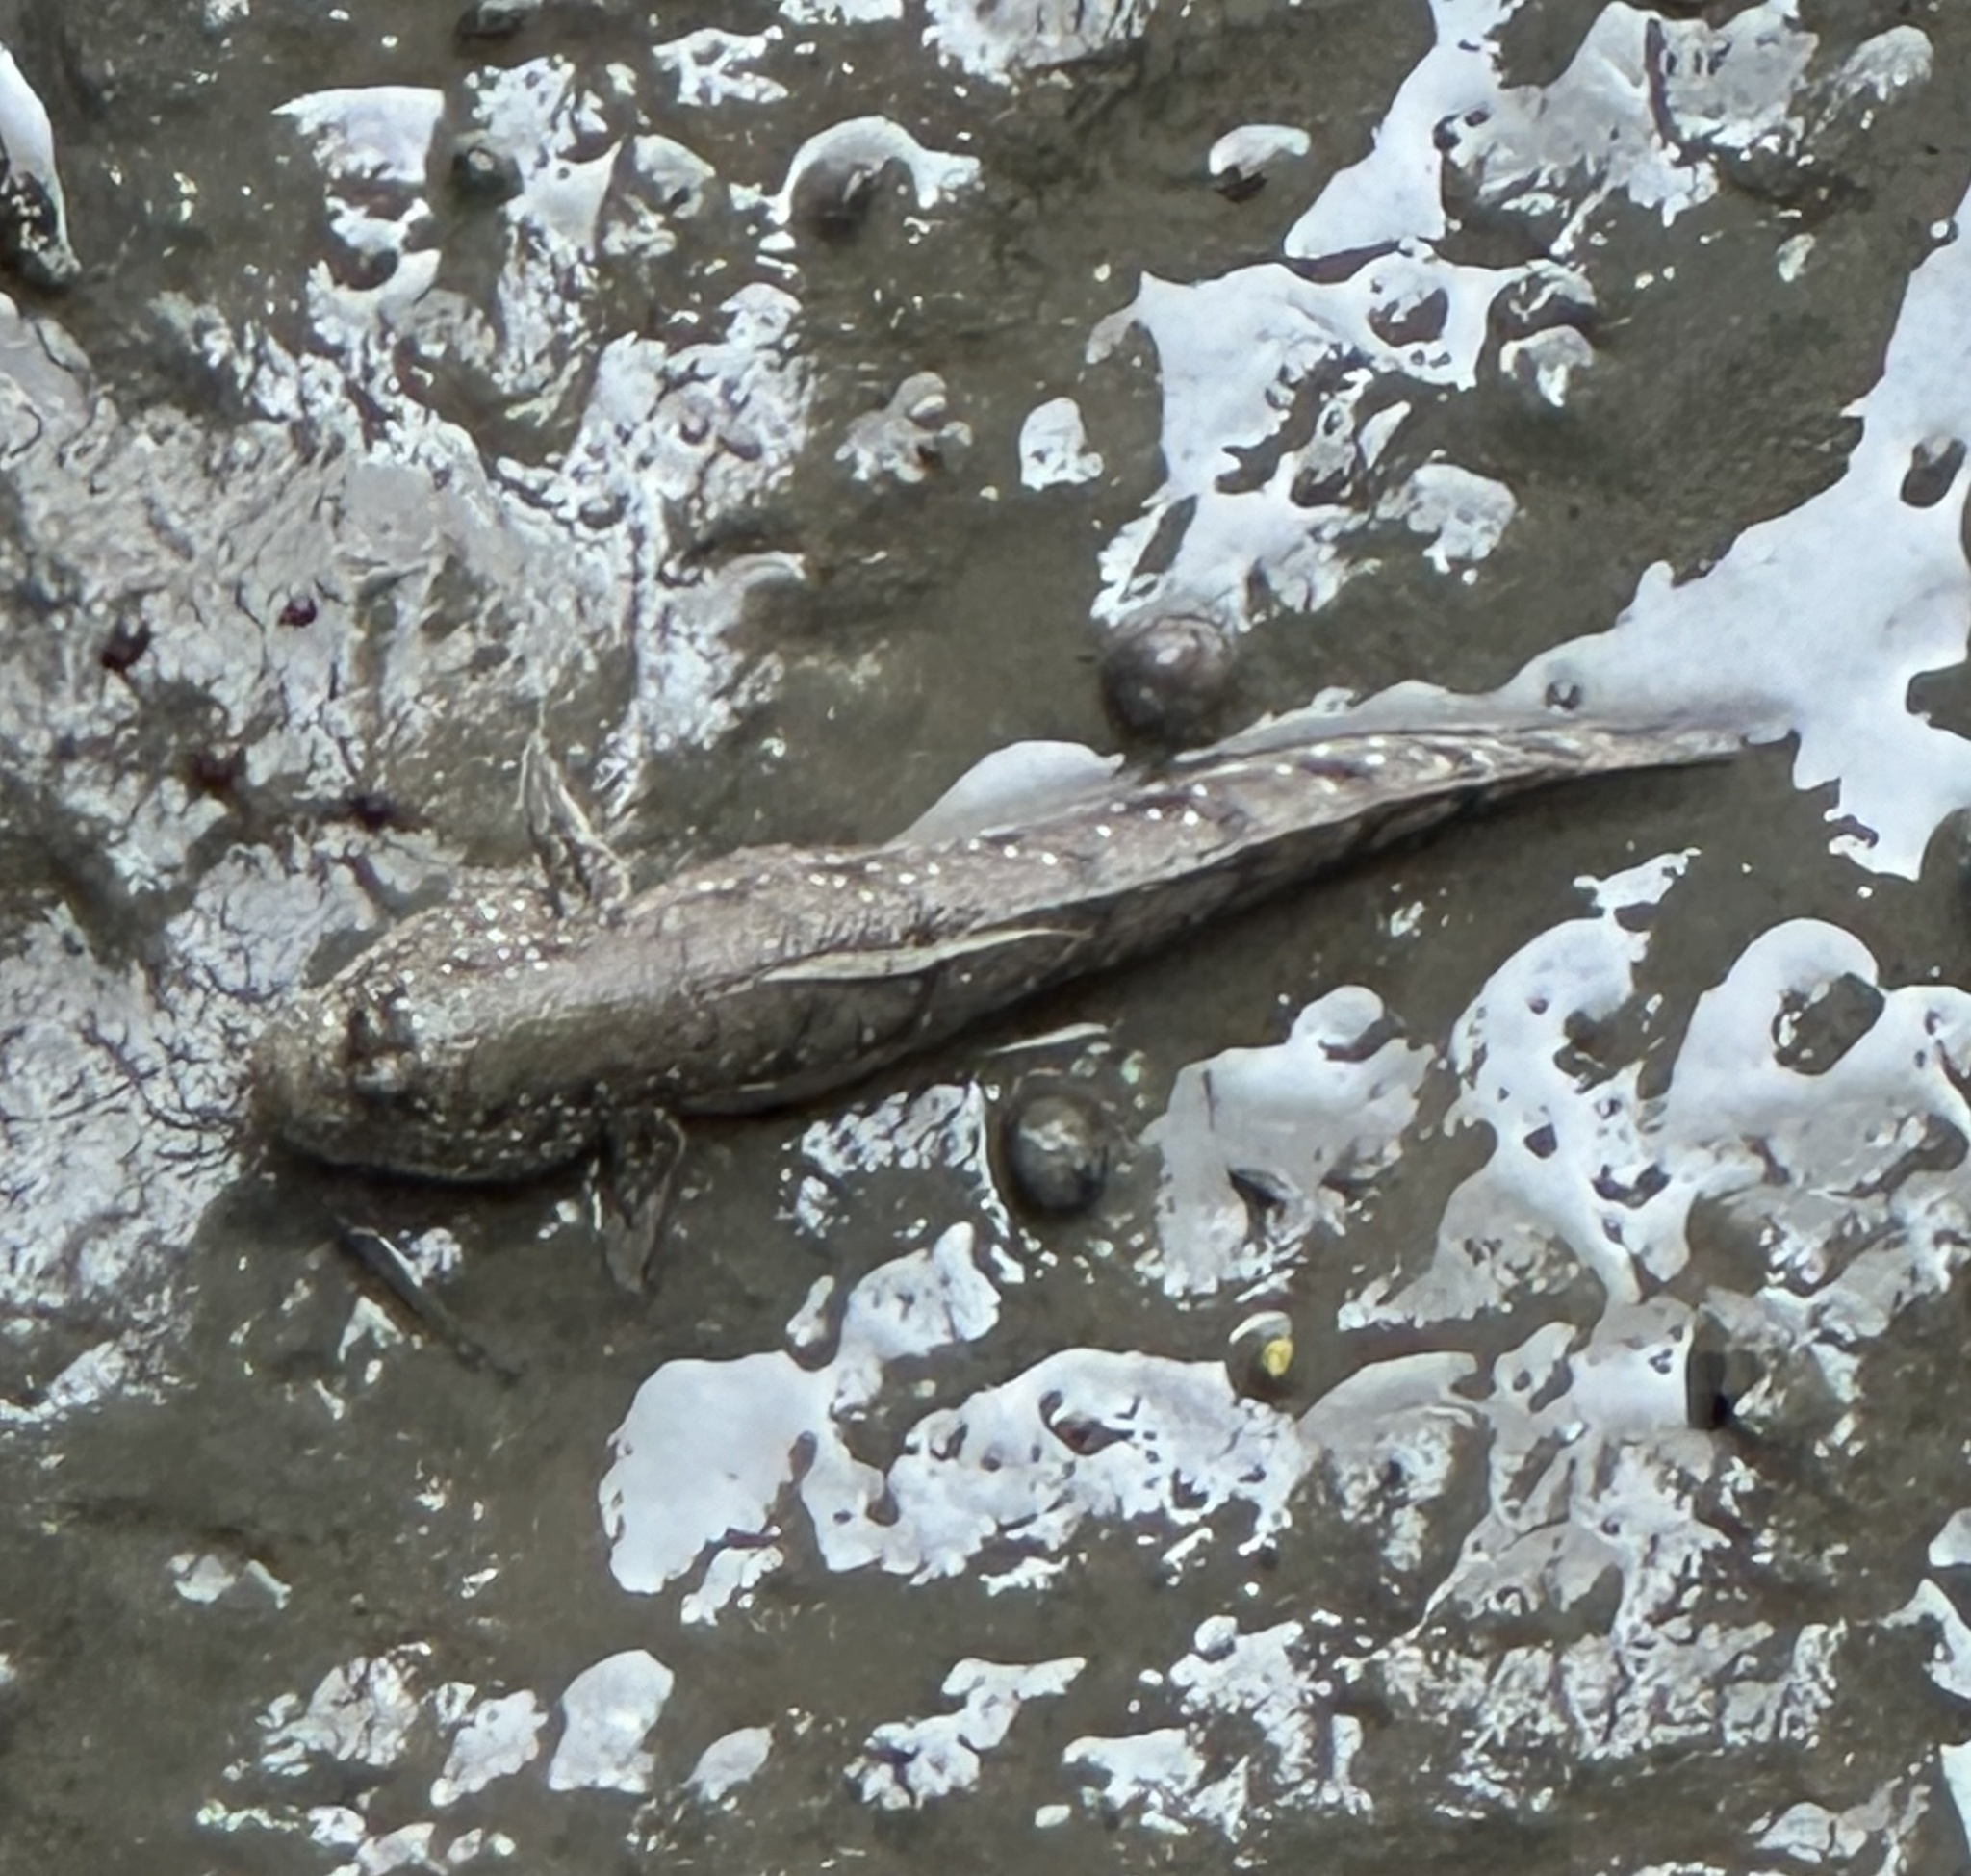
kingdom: Animalia
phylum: Chordata
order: Perciformes
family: Gobiidae
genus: Boleophthalmus
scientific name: Boleophthalmus boddarti
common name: Boddart's goggle-eyed goby
